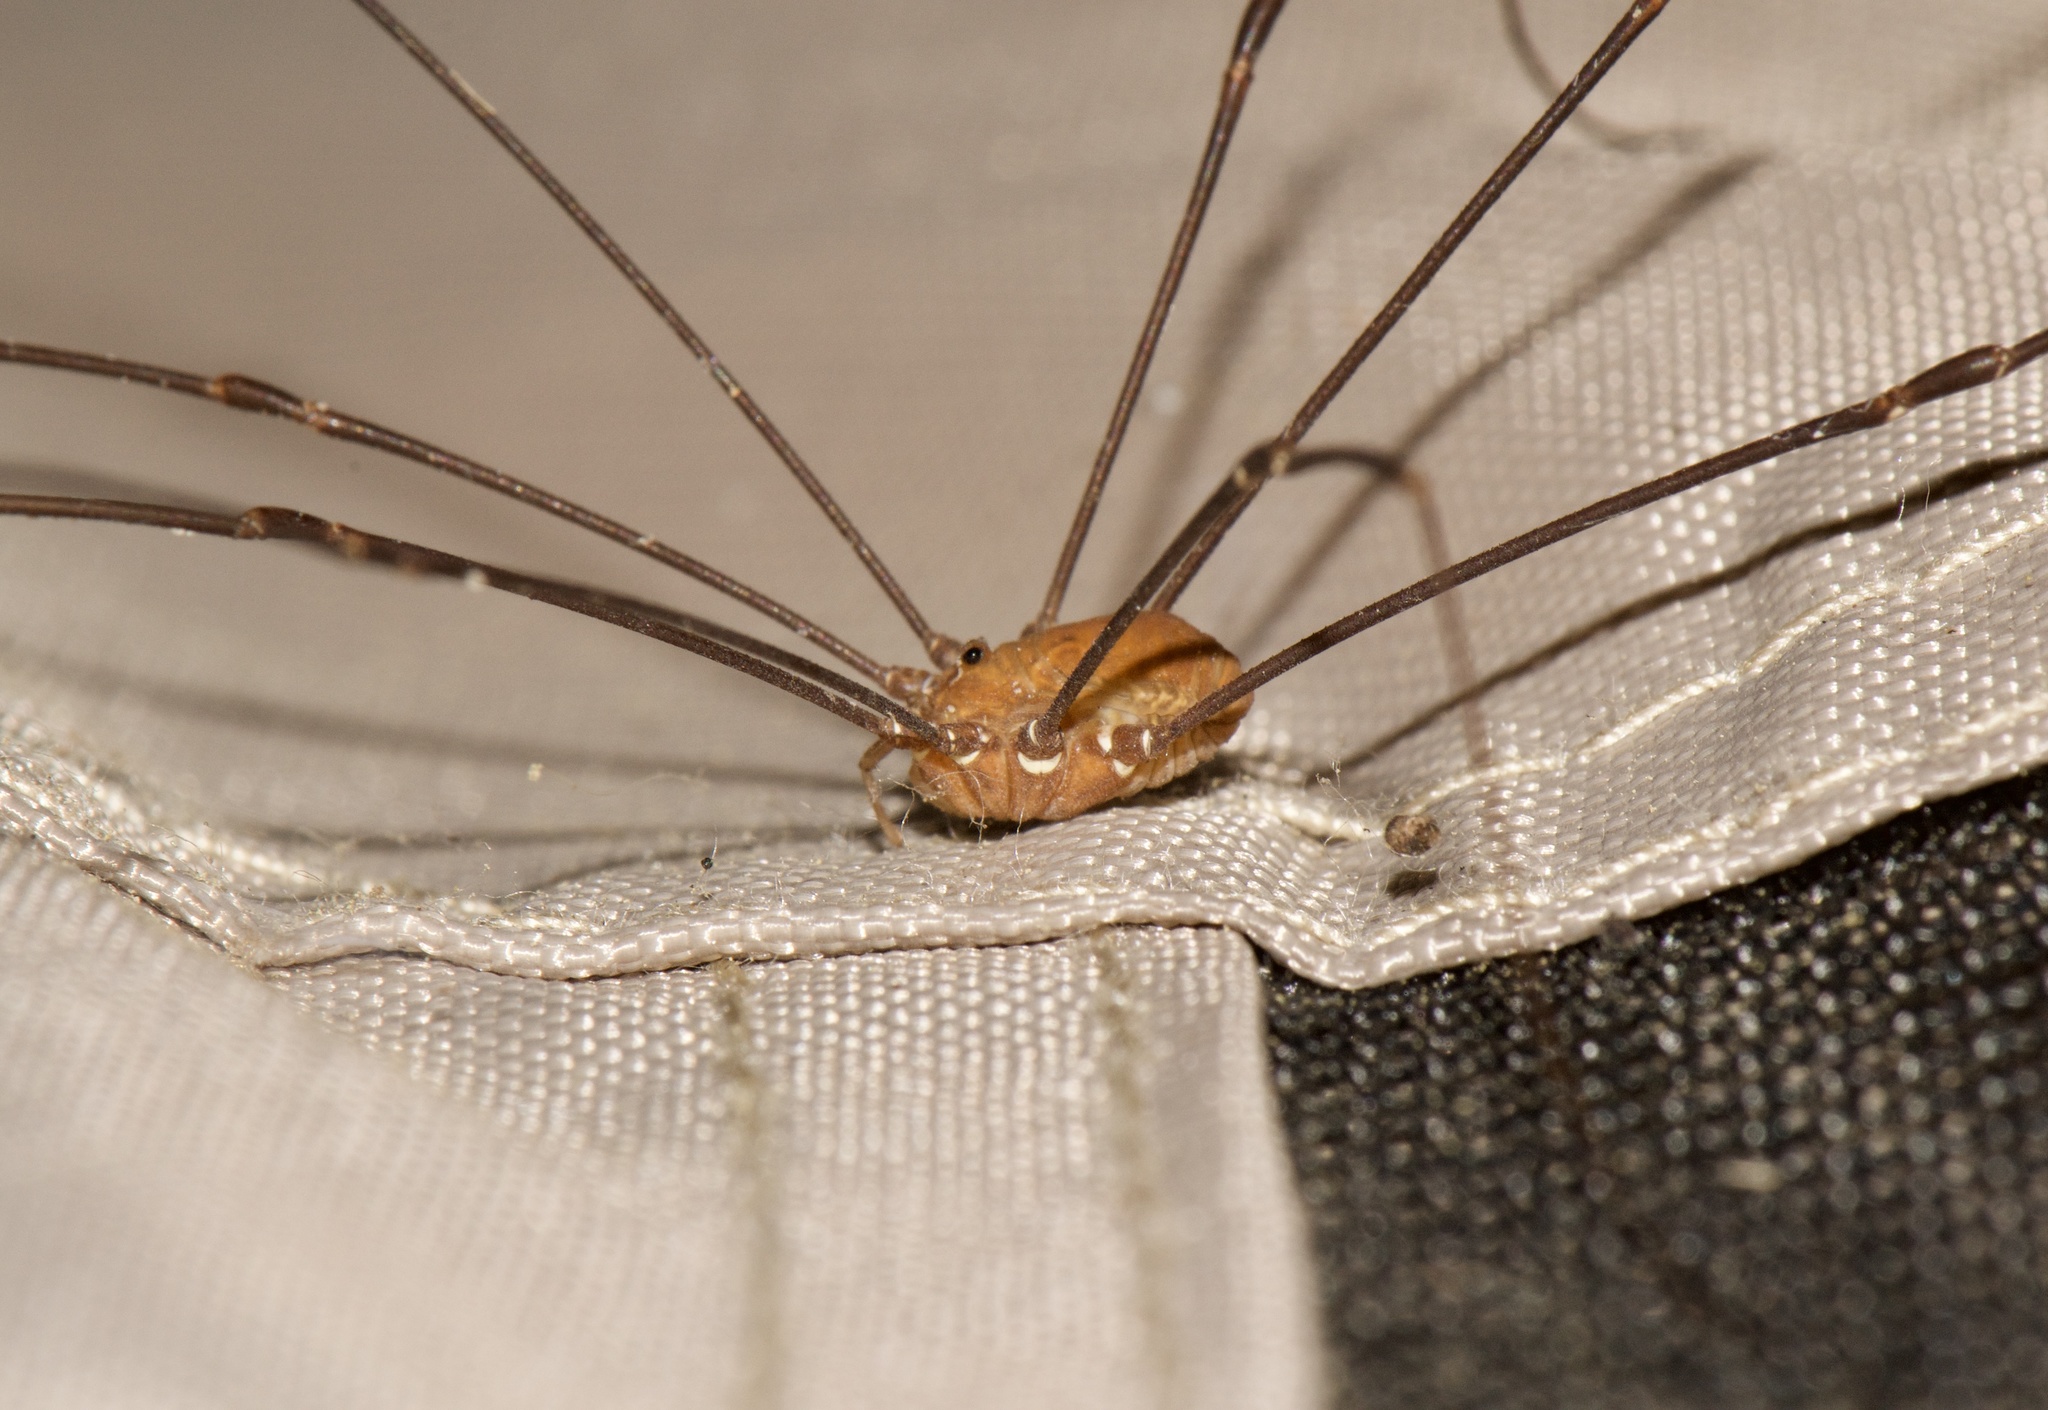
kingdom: Animalia
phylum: Arthropoda
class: Arachnida
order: Opiliones
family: Sclerosomatidae
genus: Leiobunum
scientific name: Leiobunum flavum
